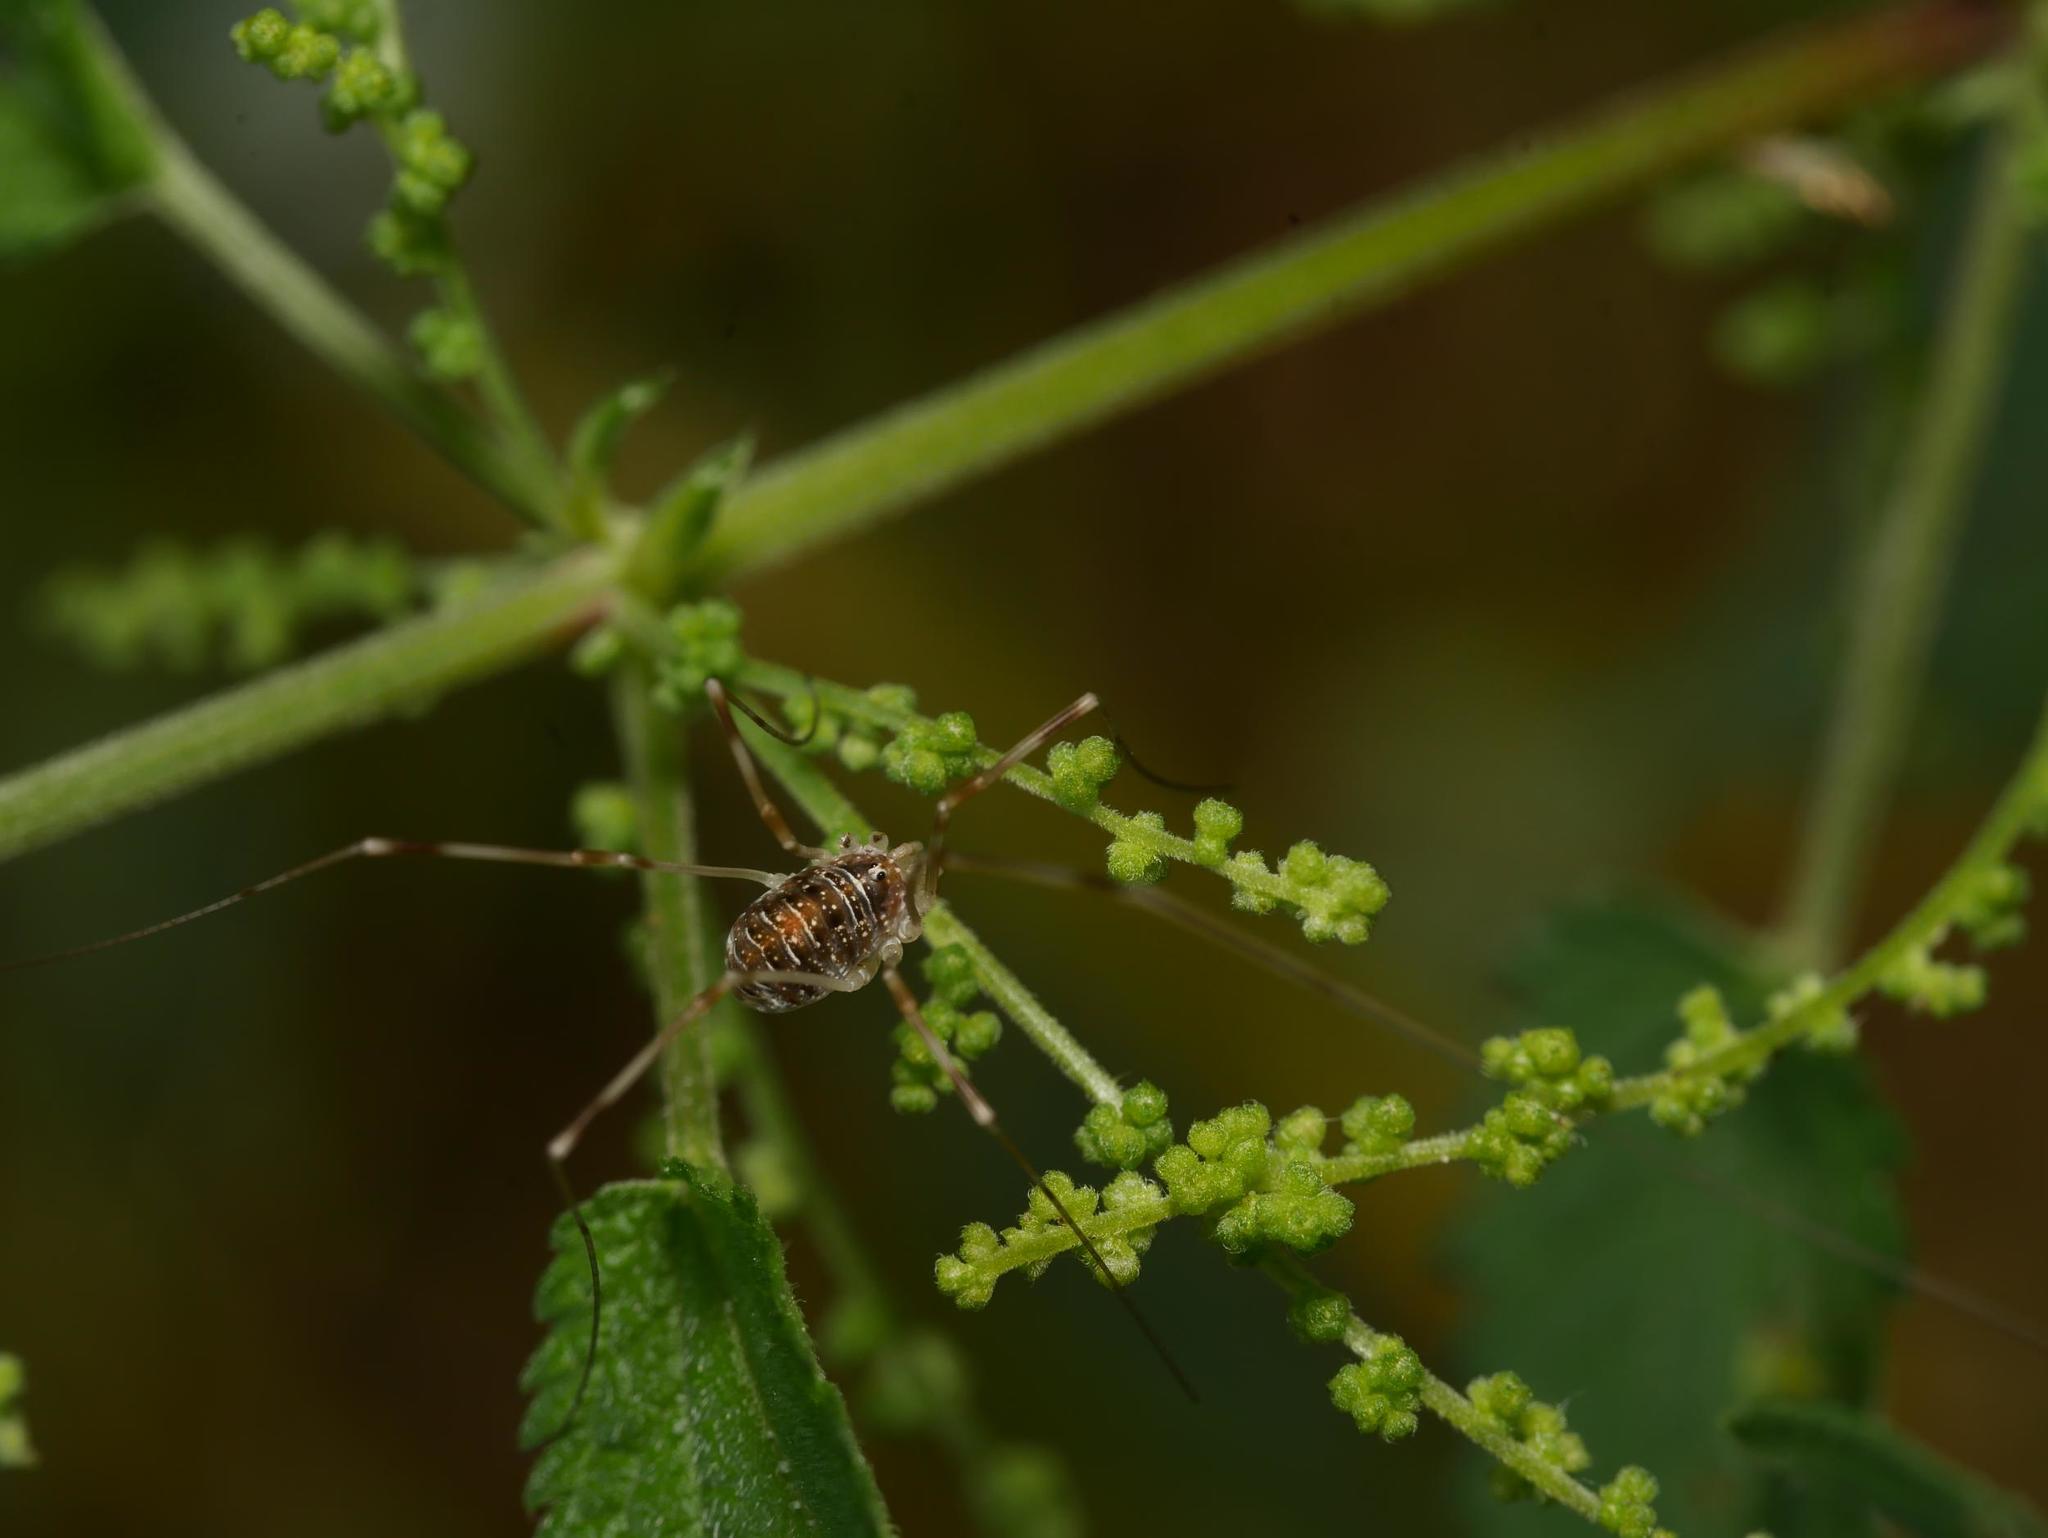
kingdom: Animalia
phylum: Arthropoda
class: Arachnida
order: Opiliones
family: Phalangiidae
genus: Opilio
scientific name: Opilio canestrinii
